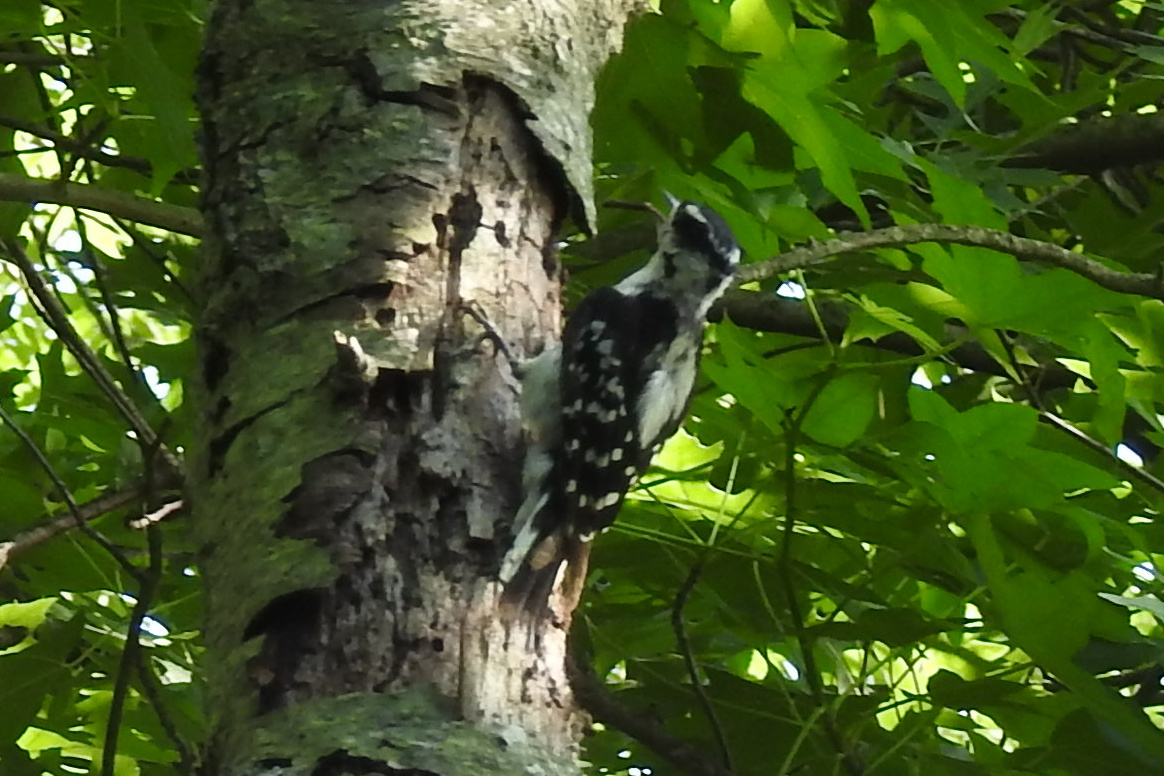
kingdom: Animalia
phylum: Chordata
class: Aves
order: Piciformes
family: Picidae
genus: Dryobates
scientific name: Dryobates pubescens
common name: Downy woodpecker
